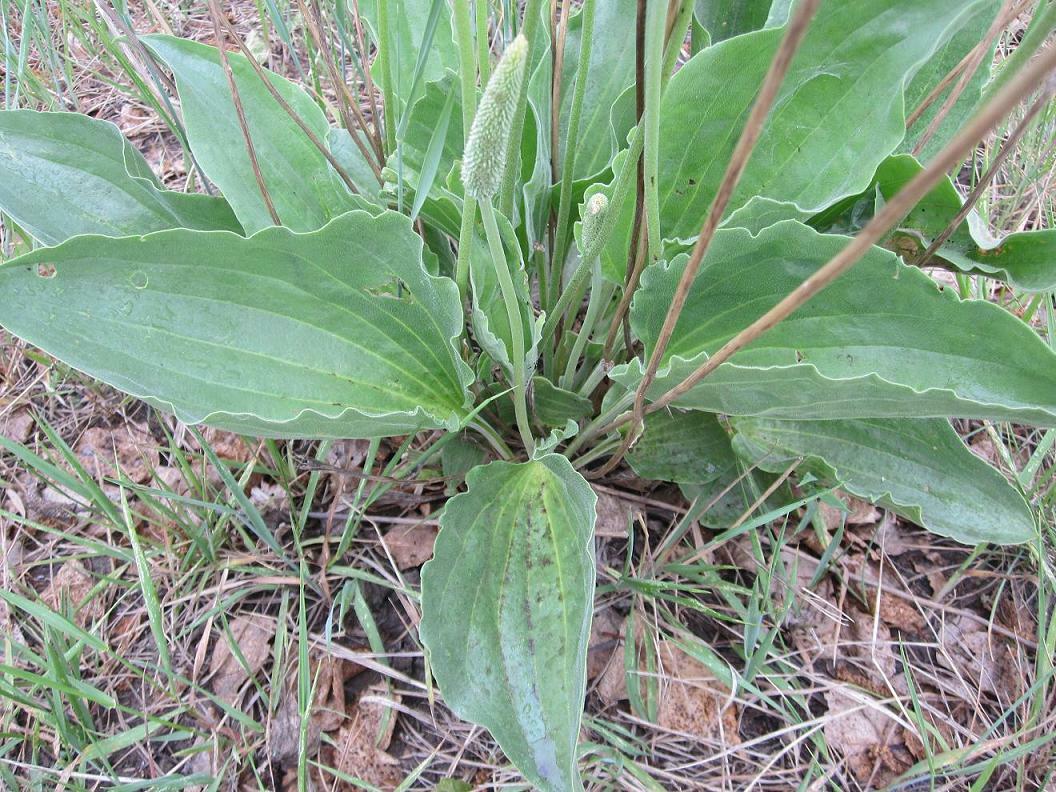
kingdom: Plantae
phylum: Tracheophyta
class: Magnoliopsida
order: Lamiales
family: Plantaginaceae
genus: Plantago
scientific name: Plantago maxima
